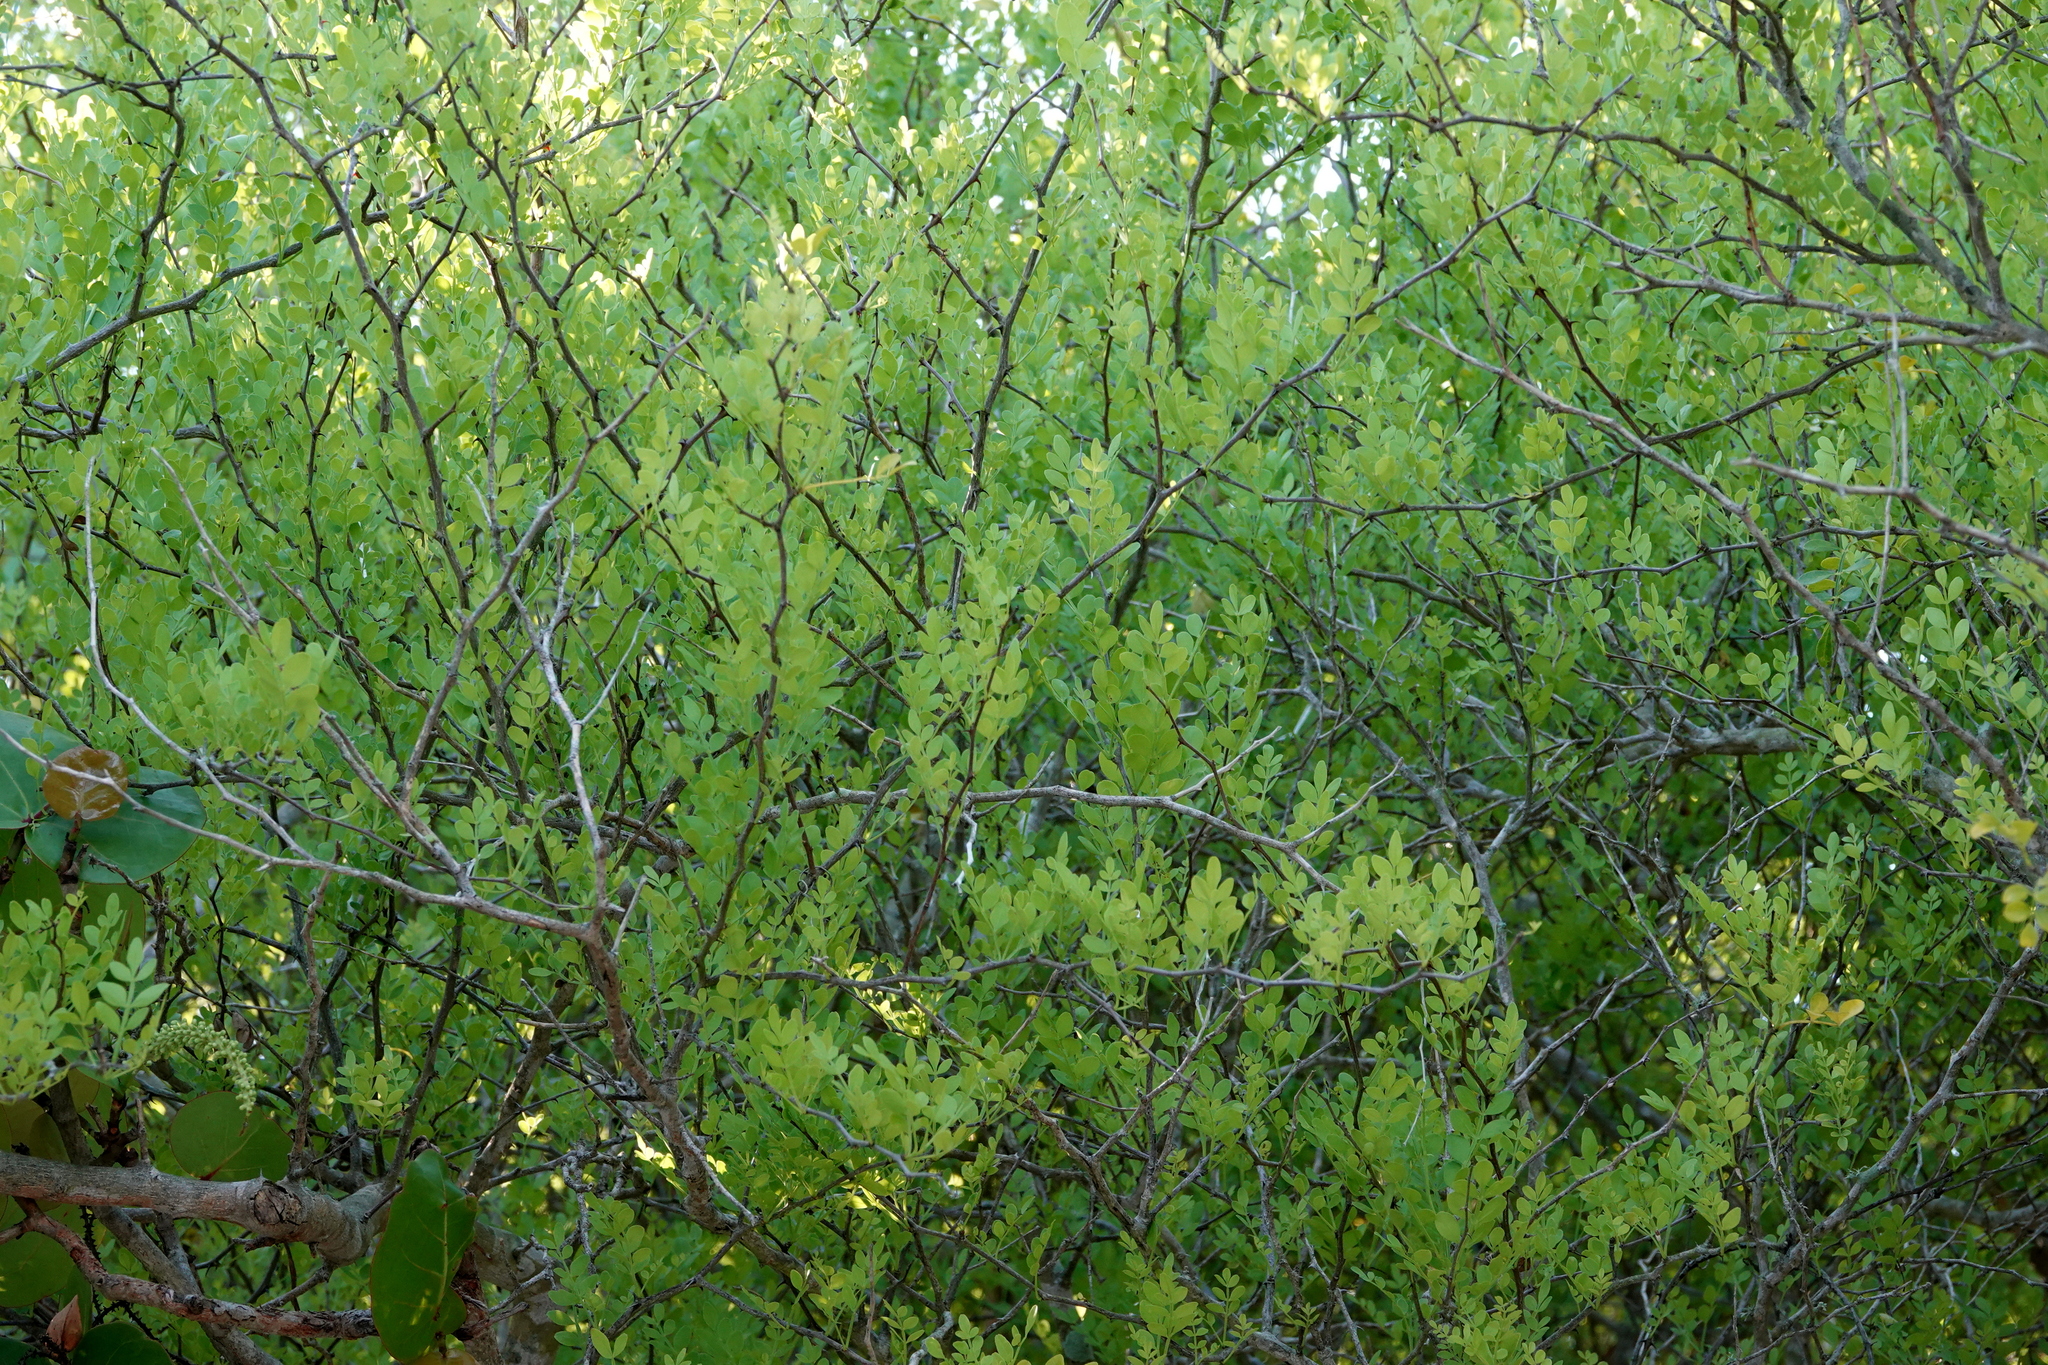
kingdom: Plantae
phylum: Tracheophyta
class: Magnoliopsida
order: Sapindales
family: Rutaceae
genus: Zanthoxylum
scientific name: Zanthoxylum fagara
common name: Lime prickly-ash
